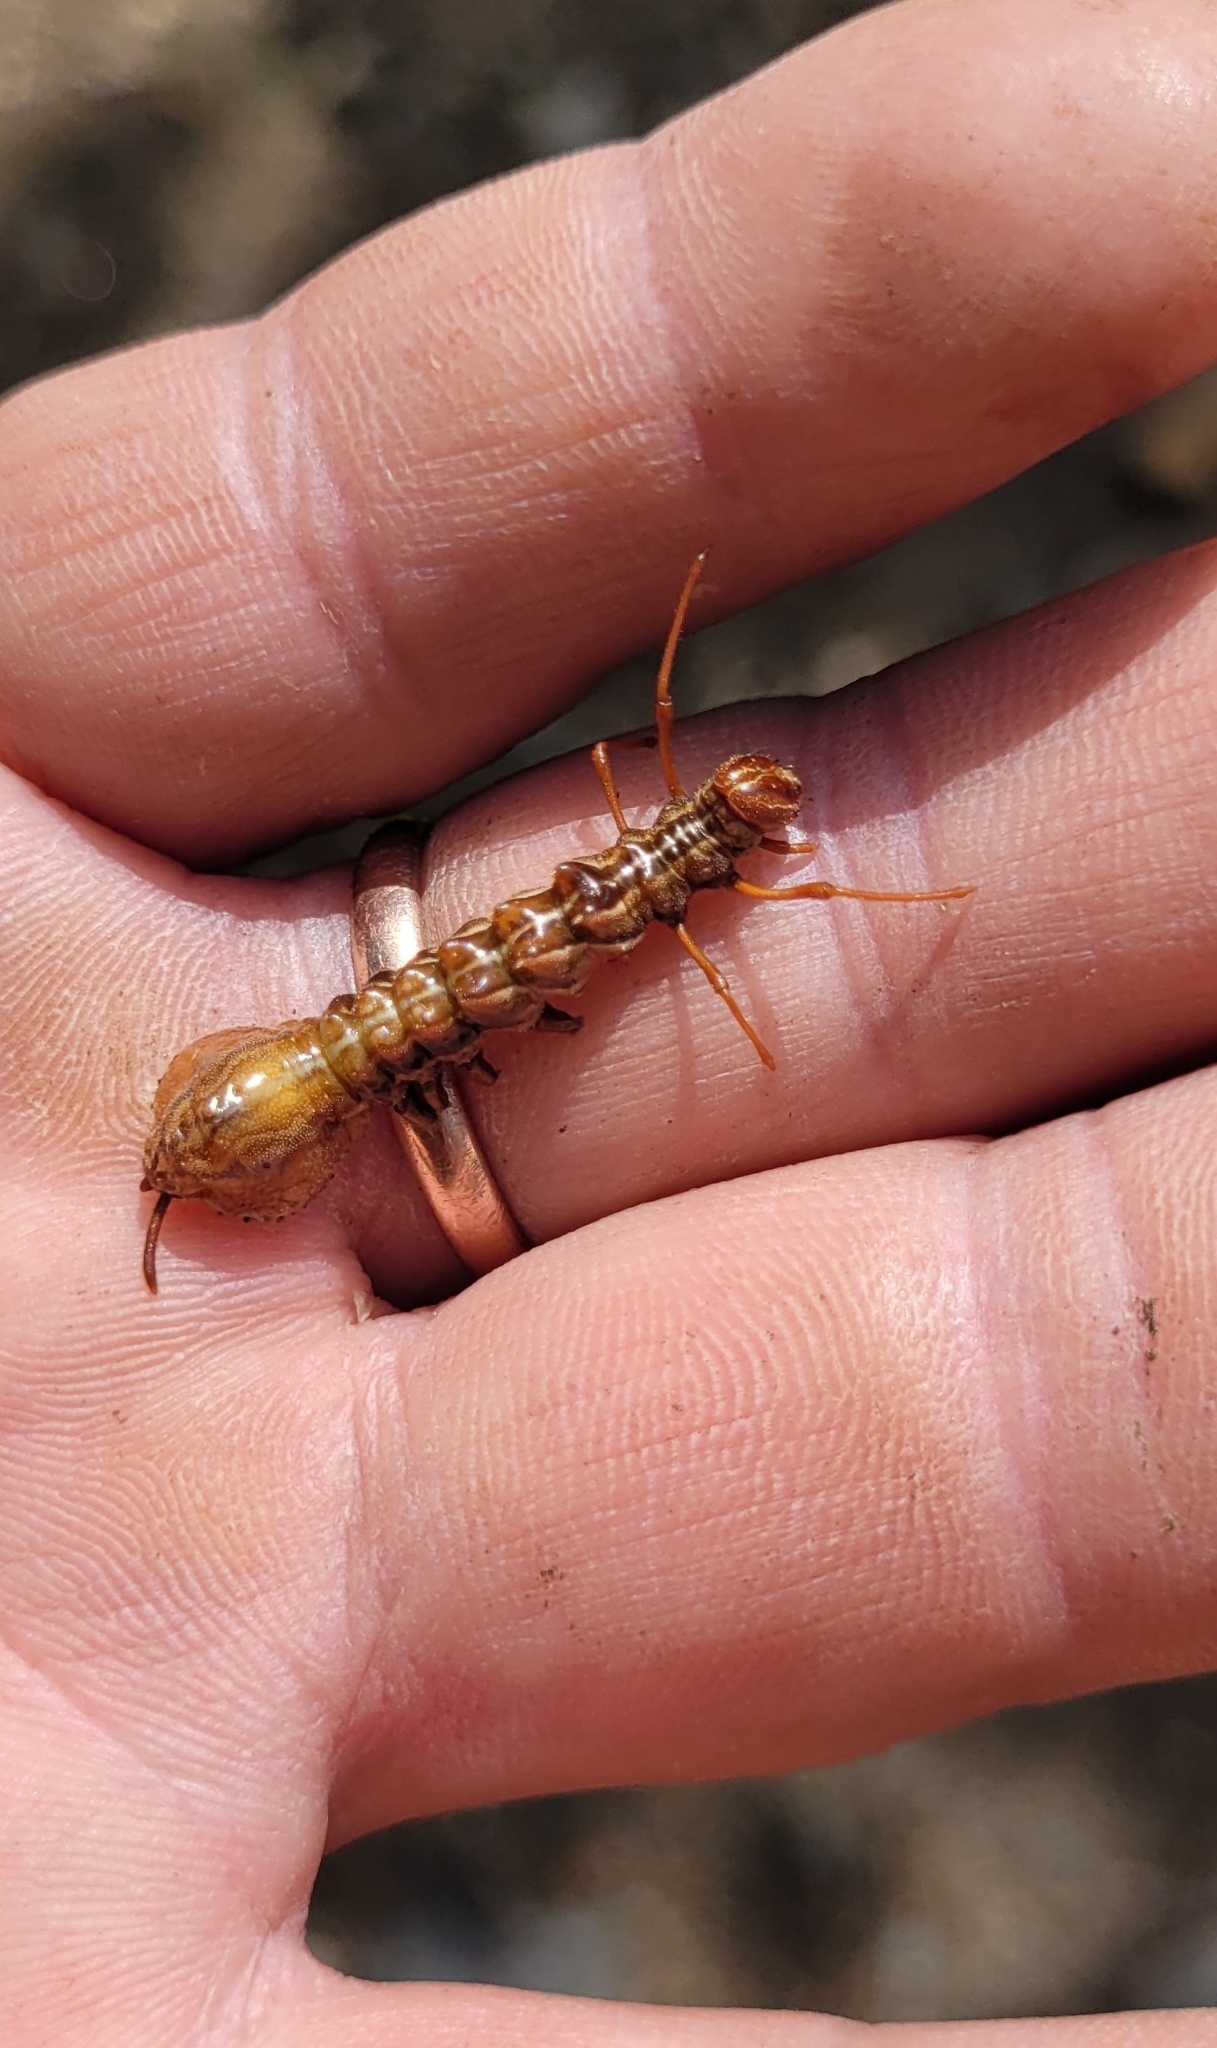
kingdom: Animalia
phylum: Arthropoda
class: Insecta
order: Lepidoptera
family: Notodontidae
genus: Stauropus
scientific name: Stauropus fagi
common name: Lobster moth
